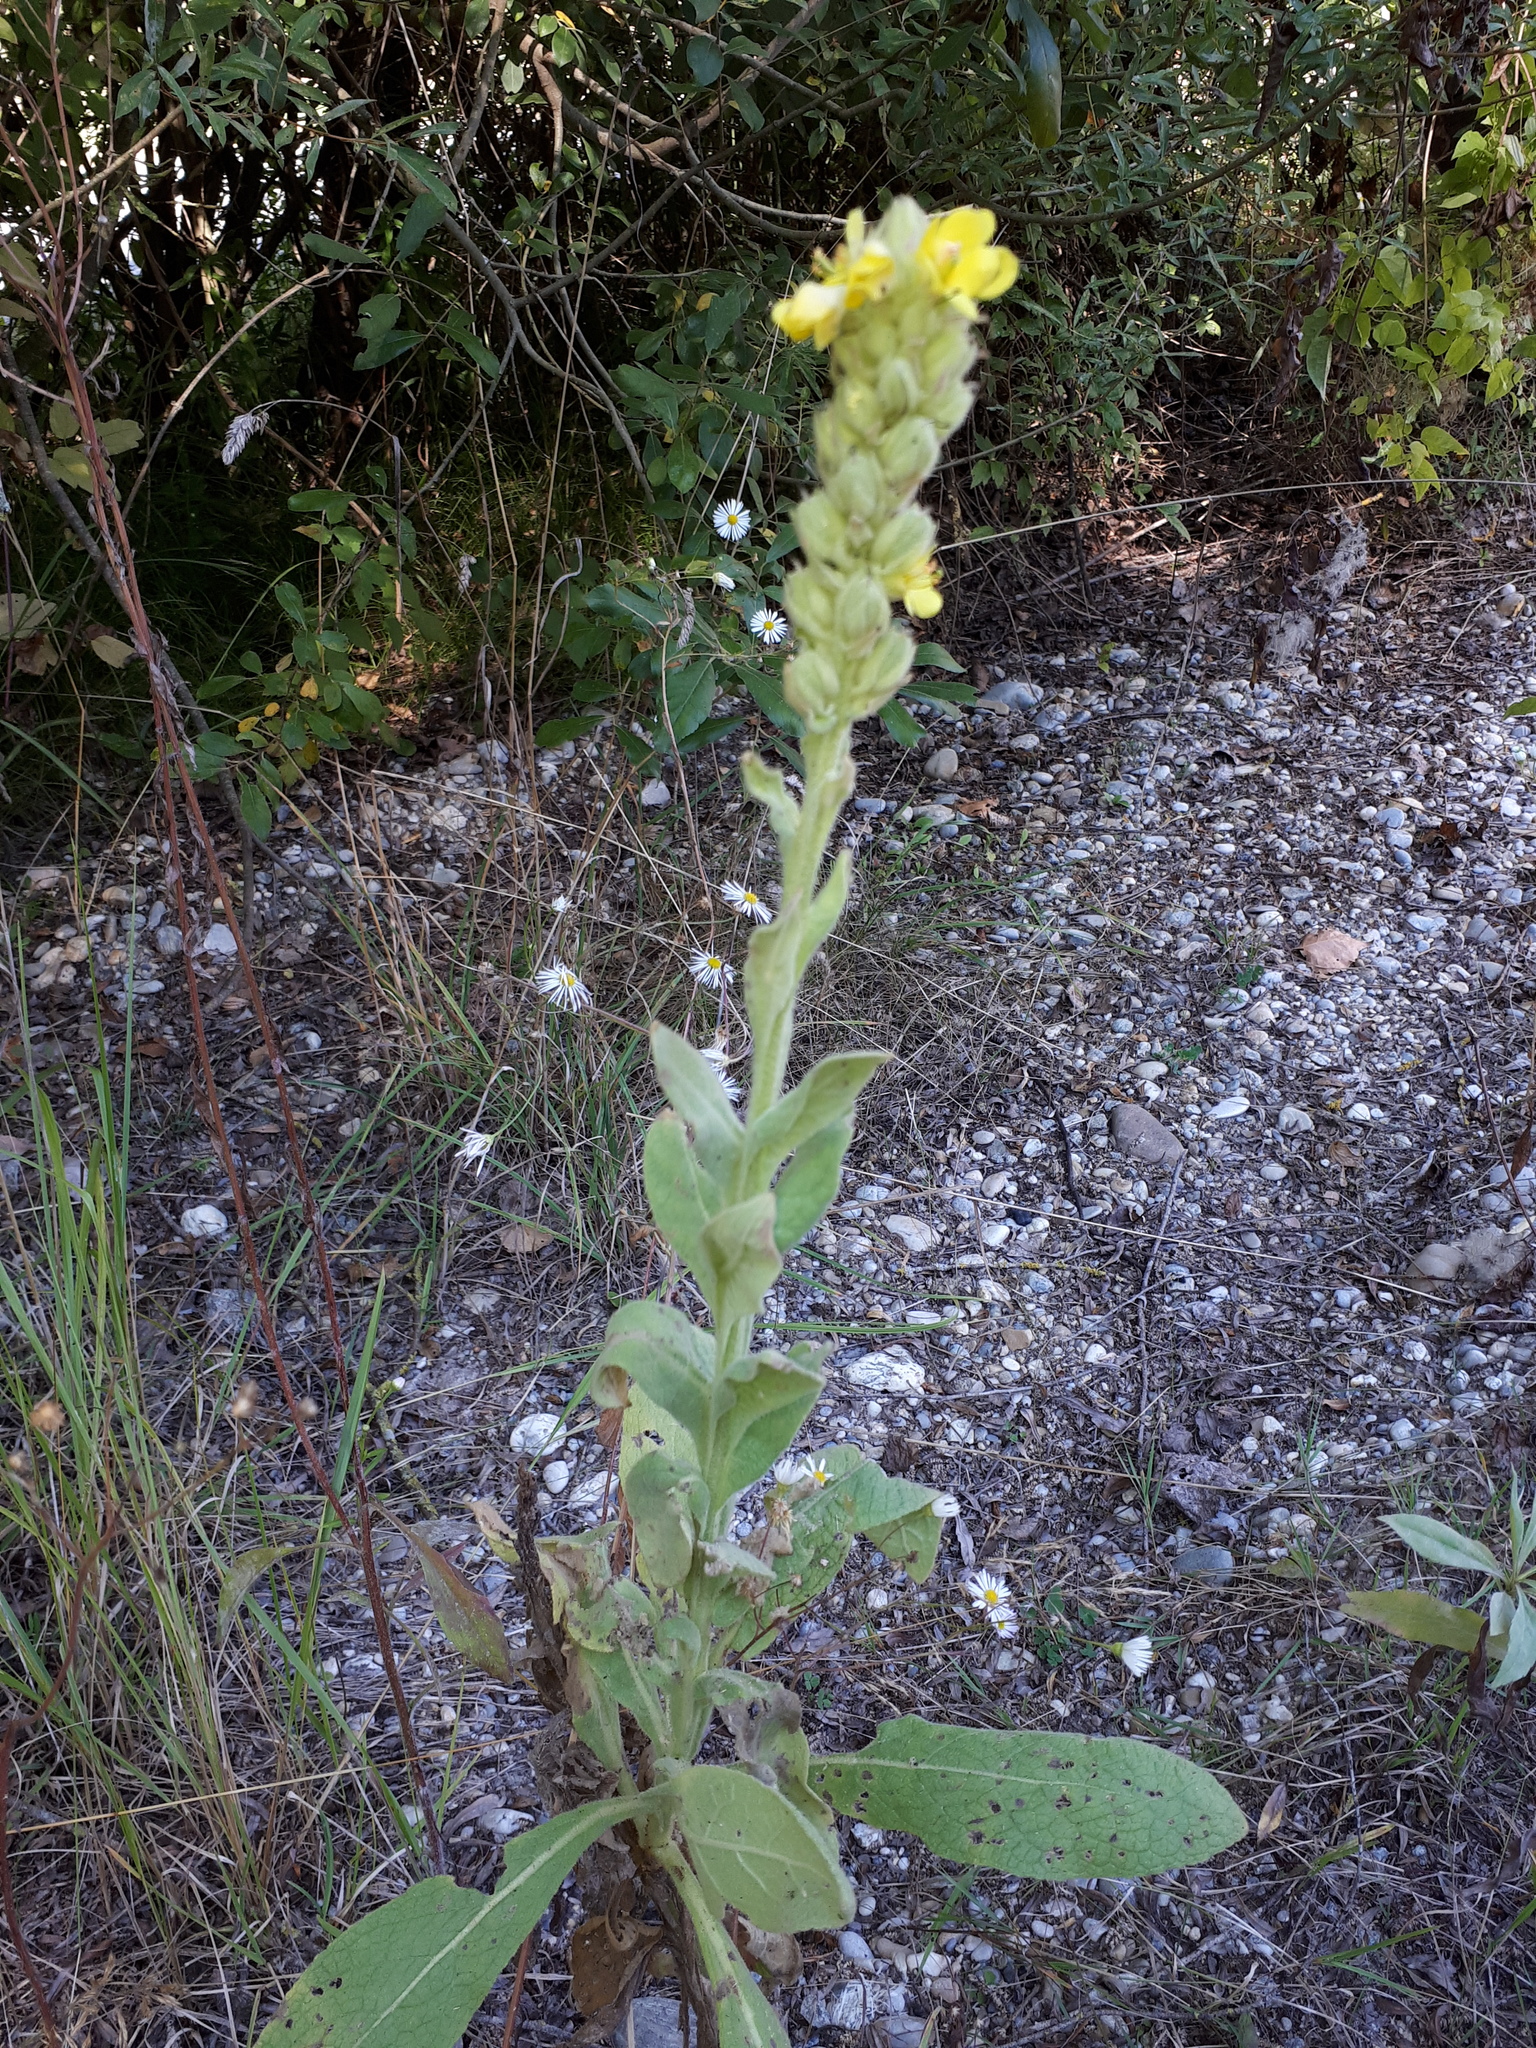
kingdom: Plantae
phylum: Tracheophyta
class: Magnoliopsida
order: Lamiales
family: Scrophulariaceae
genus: Verbascum
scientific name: Verbascum thapsus
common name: Common mullein
